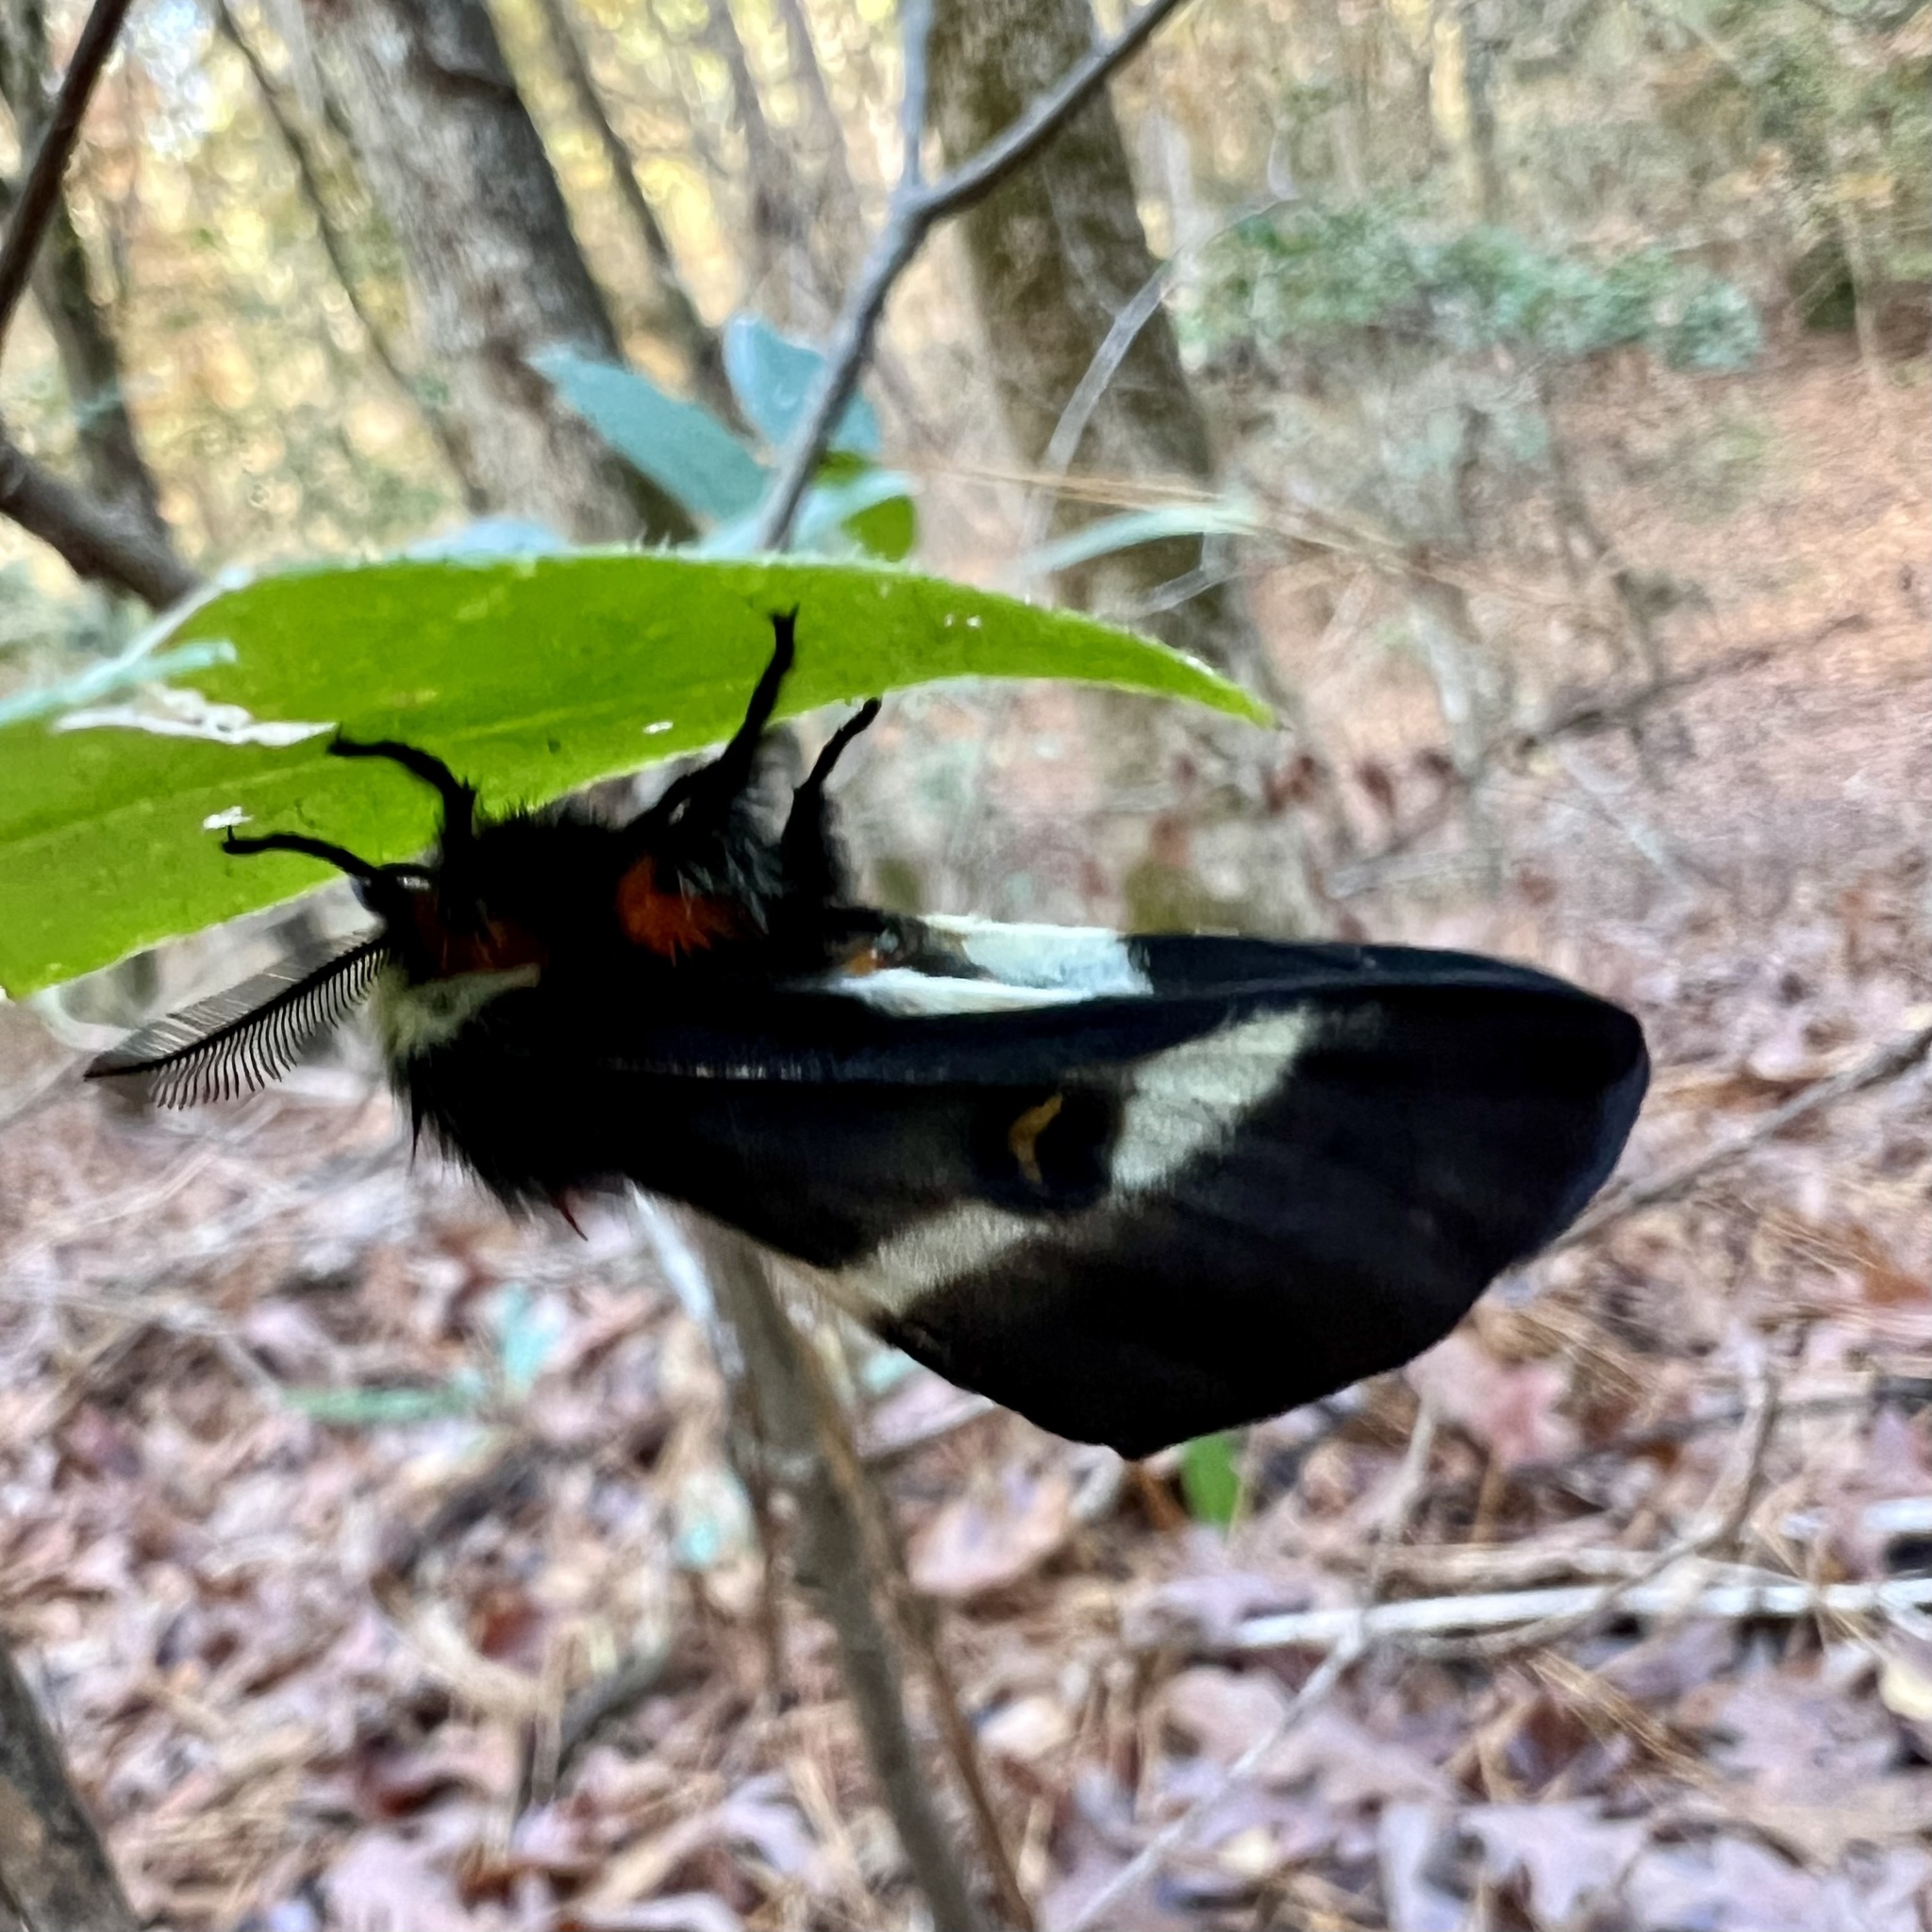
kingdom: Animalia
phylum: Arthropoda
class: Insecta
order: Lepidoptera
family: Saturniidae
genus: Hemileuca
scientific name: Hemileuca maia
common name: Eastern buckmoth
